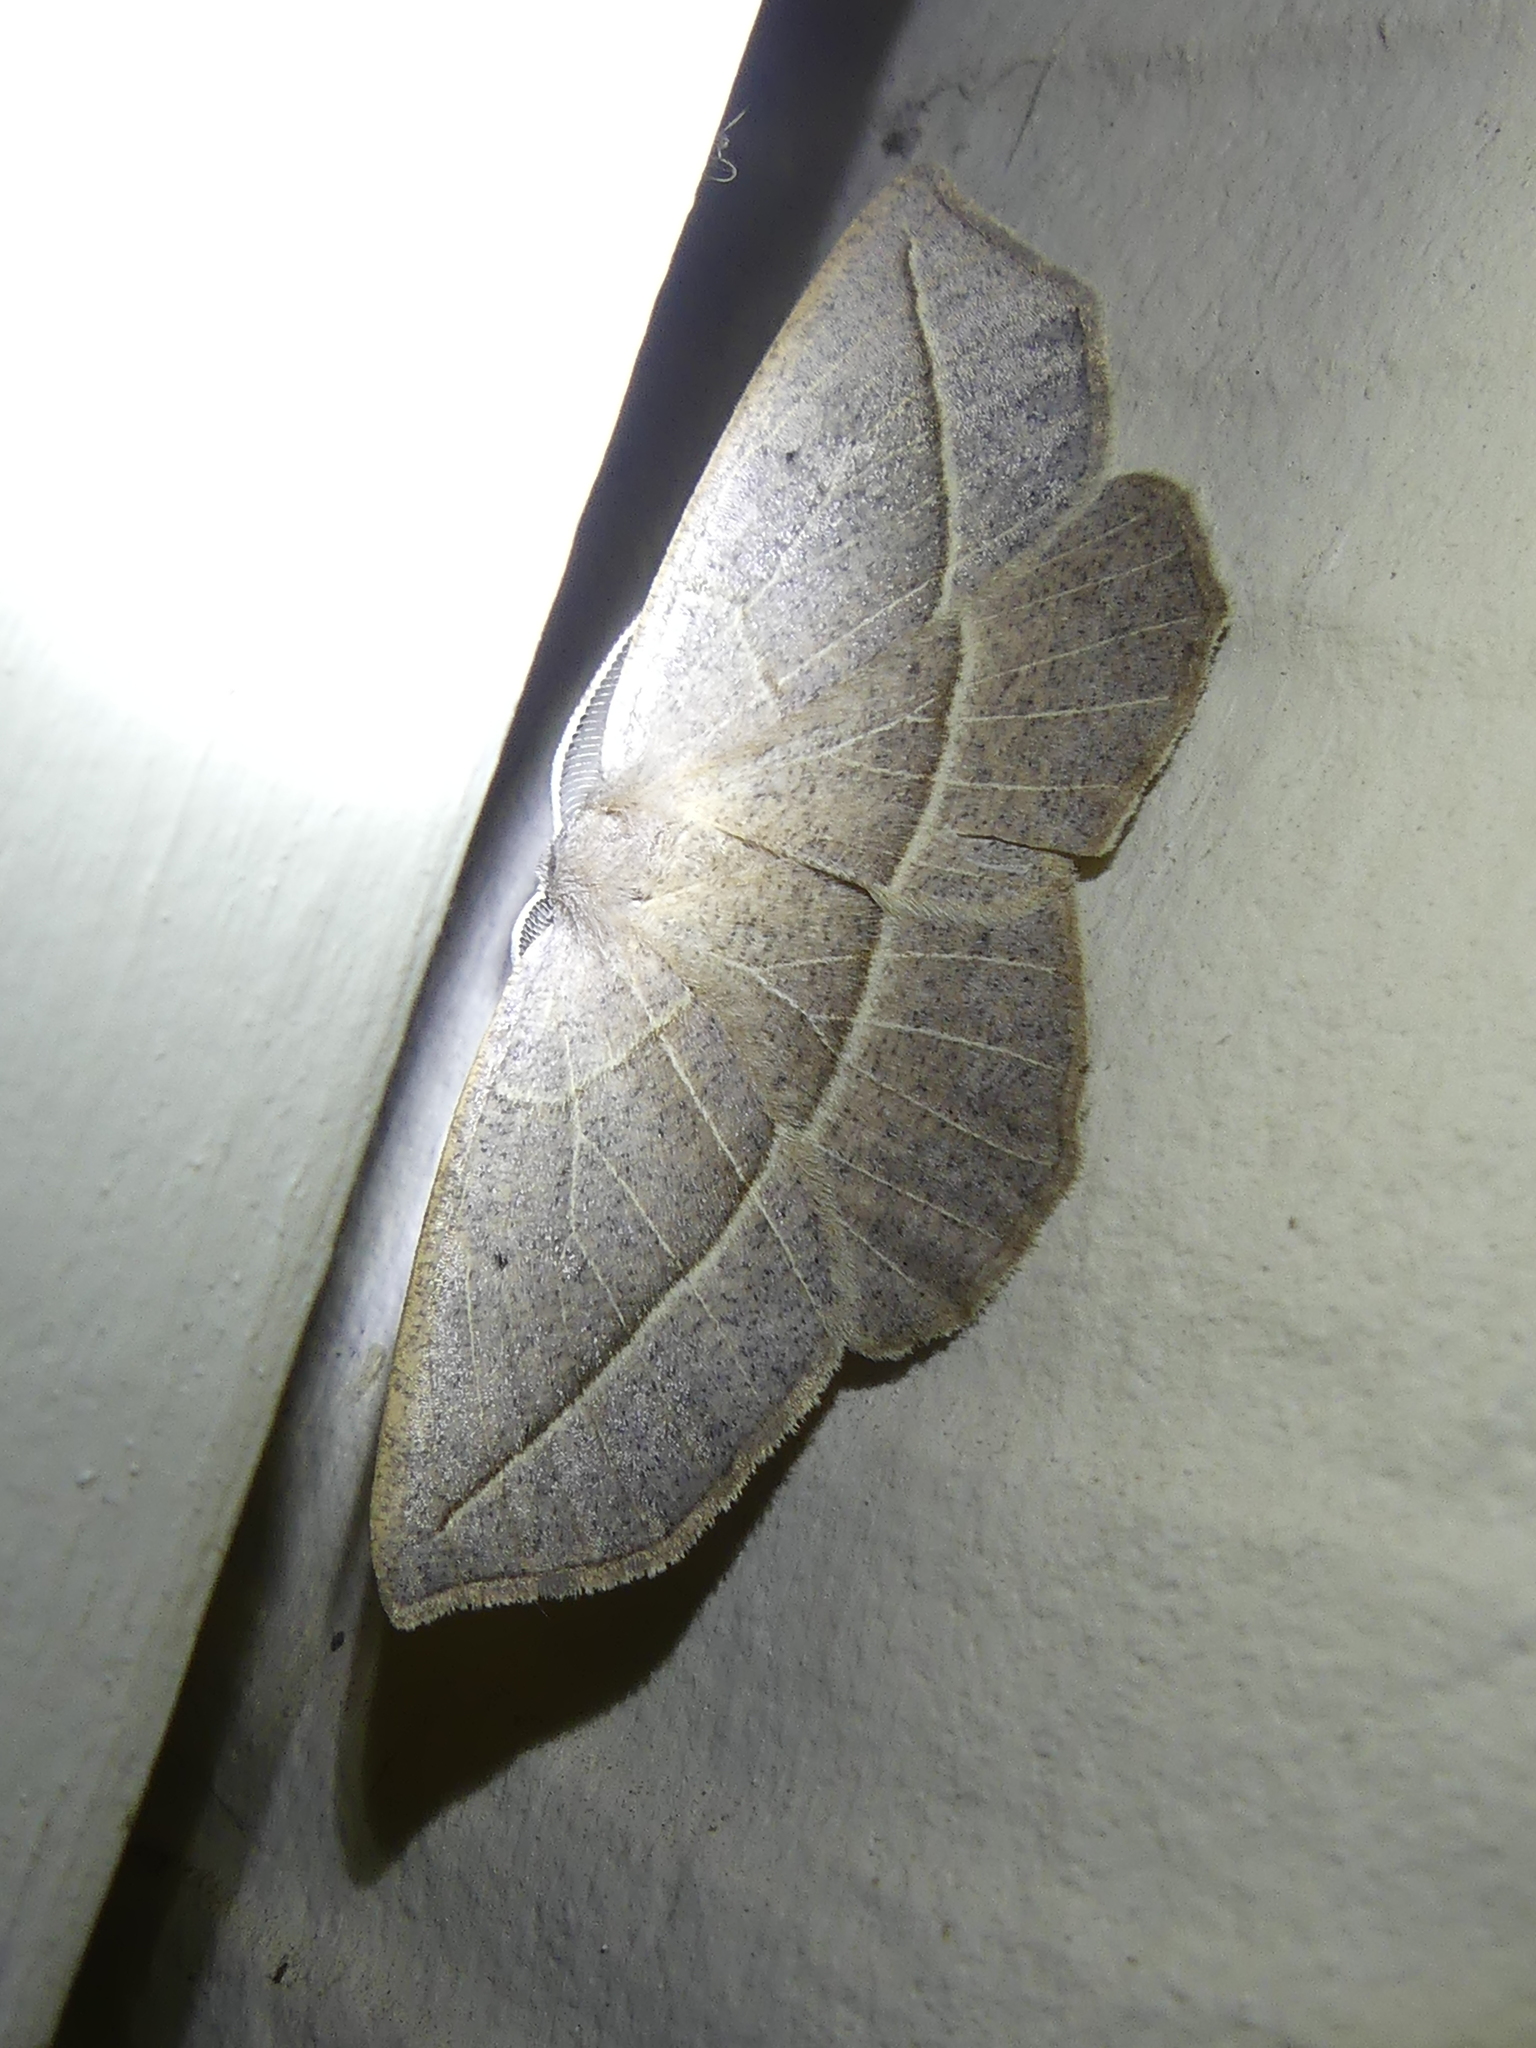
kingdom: Animalia
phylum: Arthropoda
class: Insecta
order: Lepidoptera
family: Geometridae
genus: Eusarca
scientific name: Eusarca confusaria
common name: Confused eusarca
